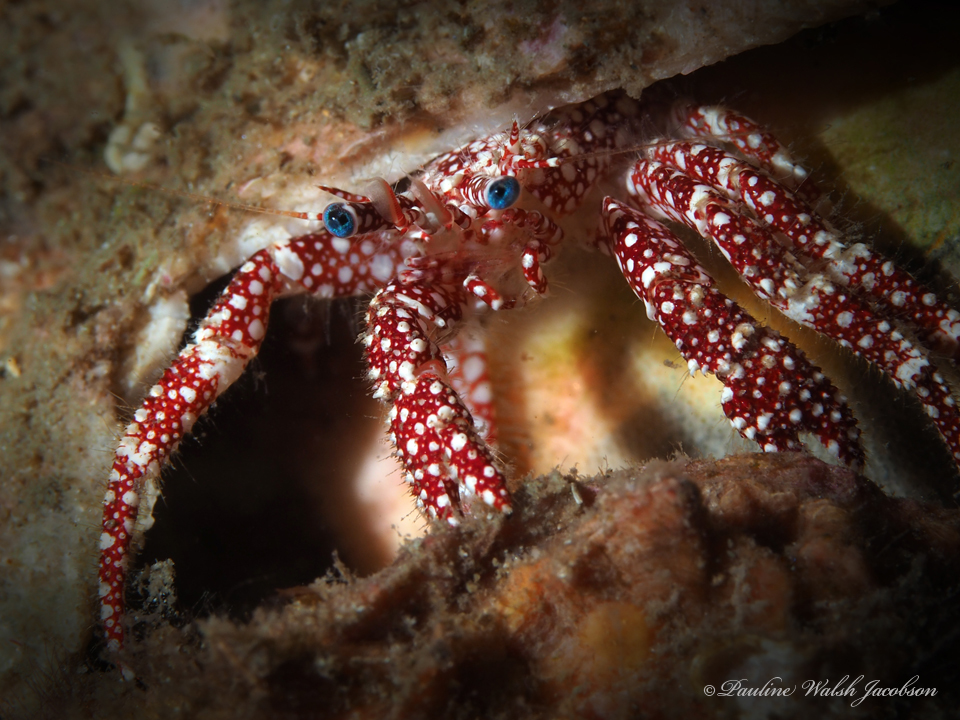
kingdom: Animalia
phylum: Arthropoda
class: Malacostraca
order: Decapoda
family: Diogenidae
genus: Paguristes
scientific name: Paguristes puncticeps
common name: White speckled hermit
